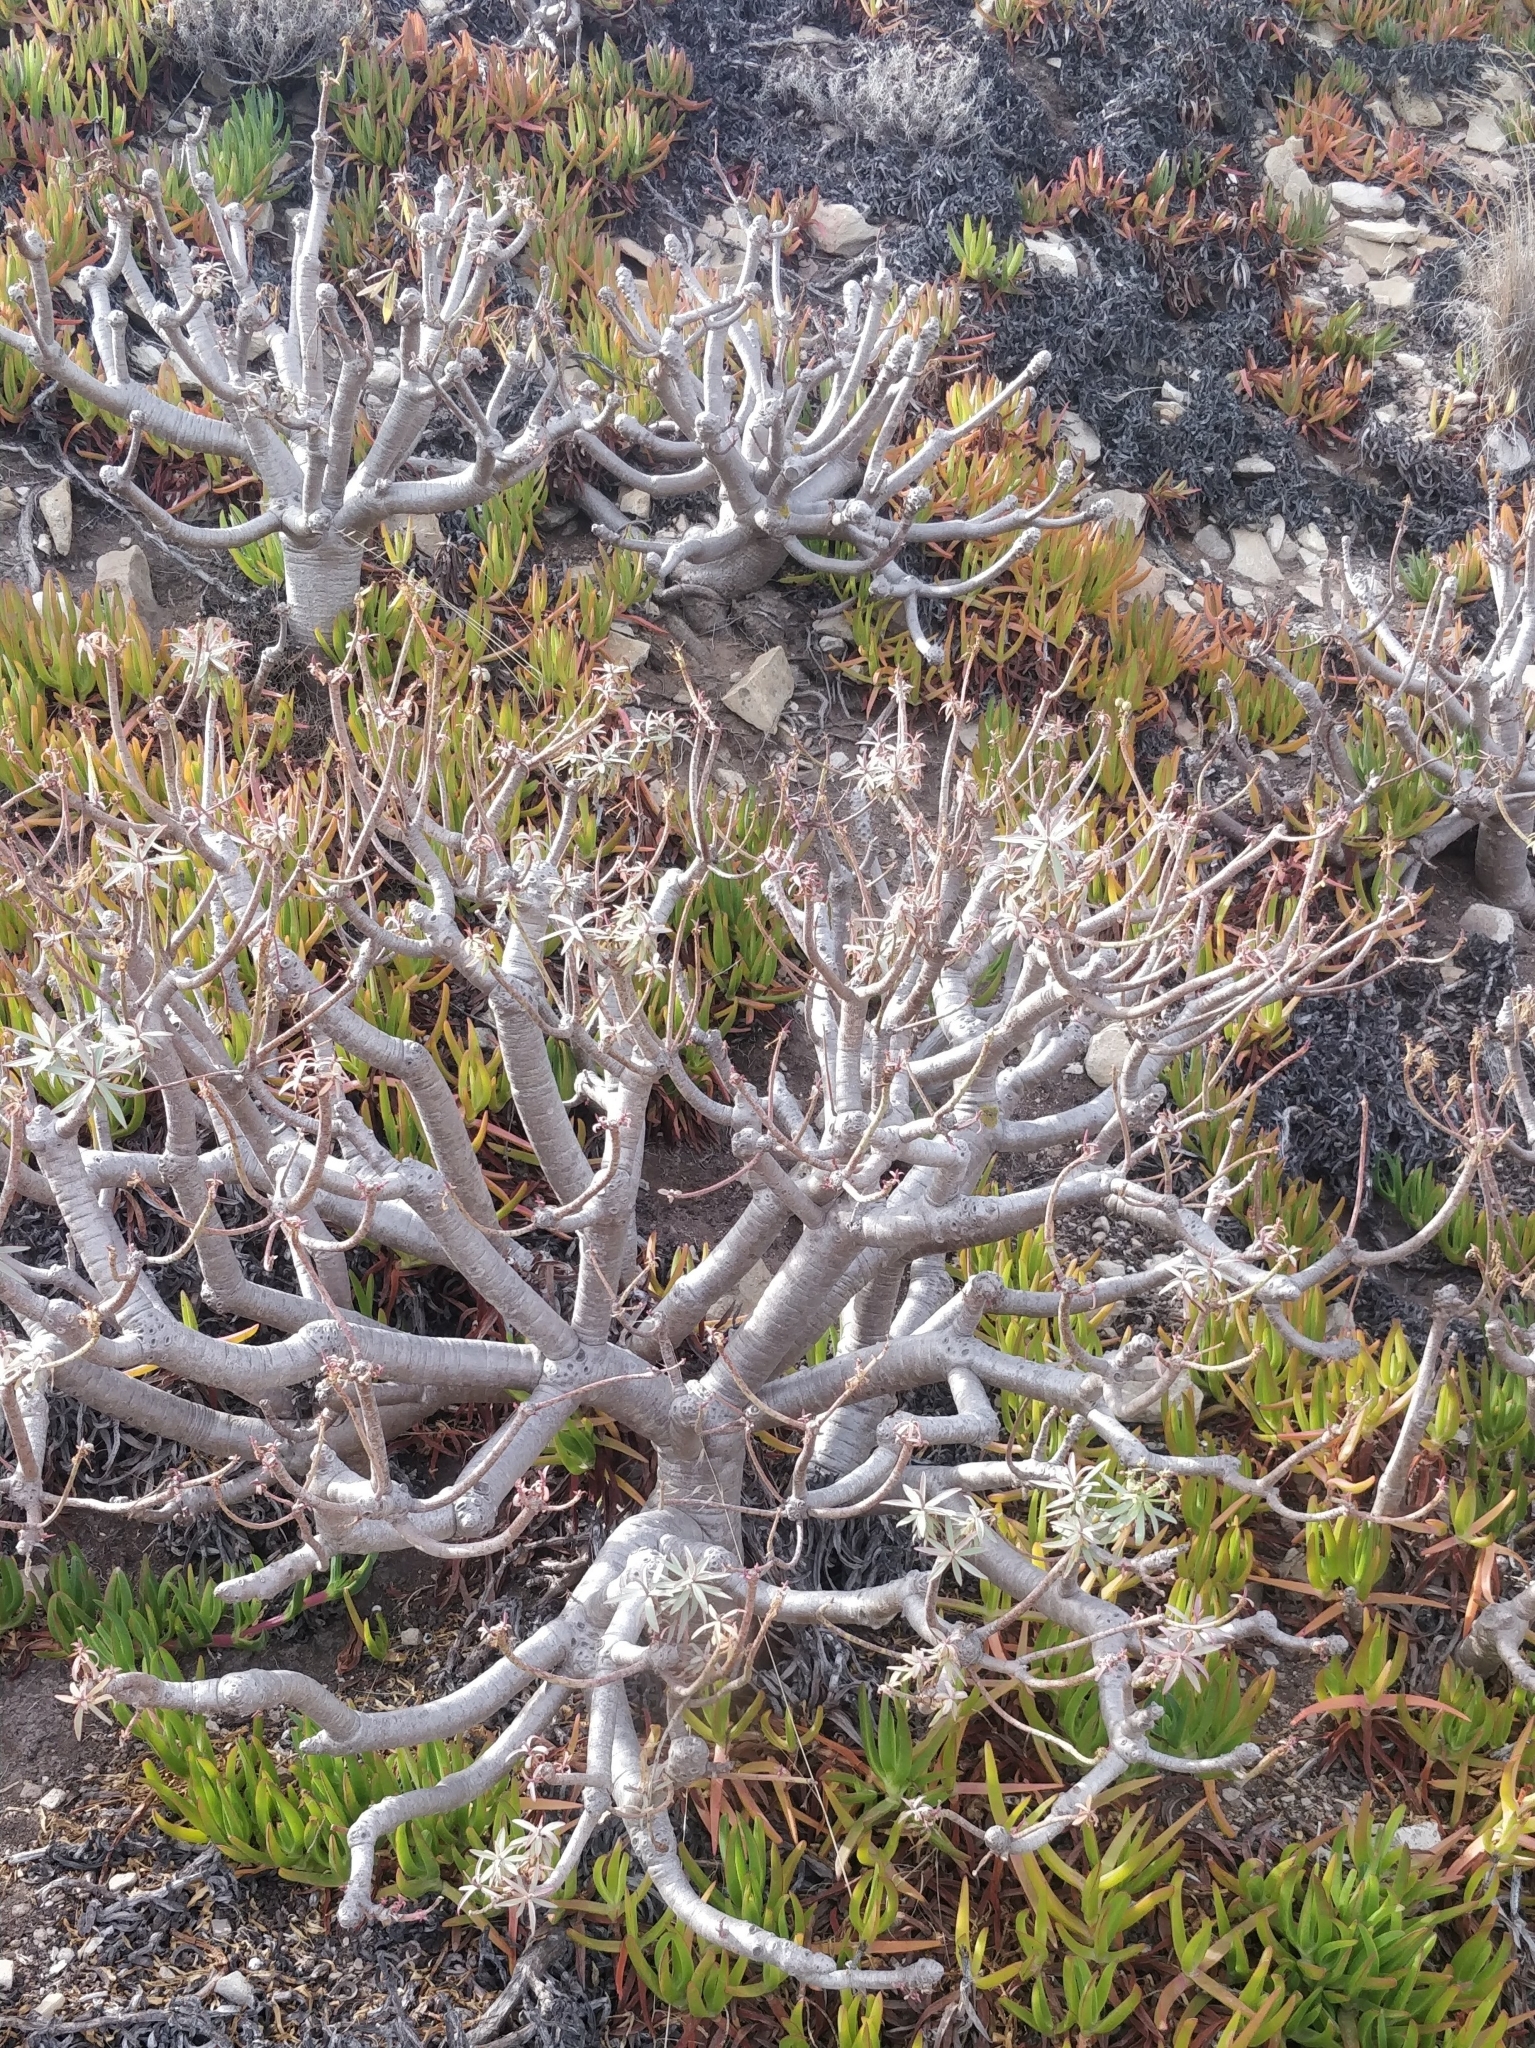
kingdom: Plantae
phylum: Tracheophyta
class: Magnoliopsida
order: Malpighiales
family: Euphorbiaceae
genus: Euphorbia
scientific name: Euphorbia piscatoria
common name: Fish-stunning spurge
